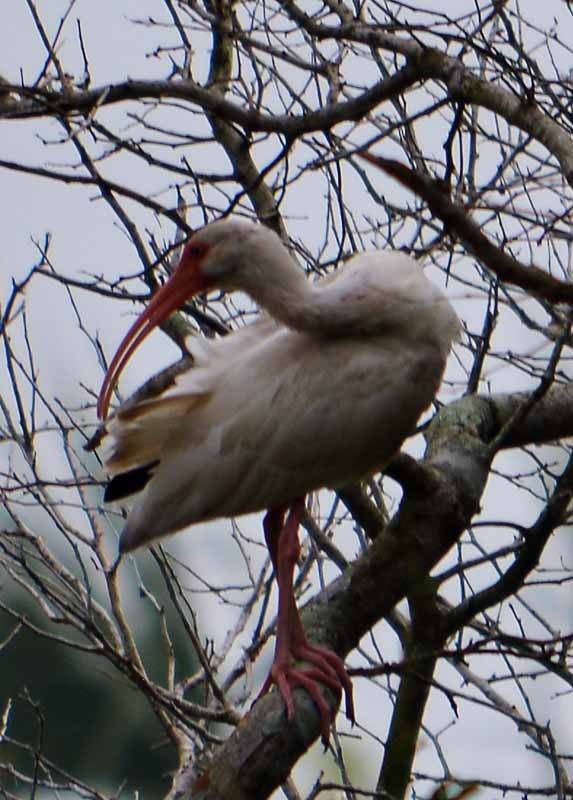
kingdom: Animalia
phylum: Chordata
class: Aves
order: Pelecaniformes
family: Threskiornithidae
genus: Eudocimus
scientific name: Eudocimus albus
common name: White ibis
